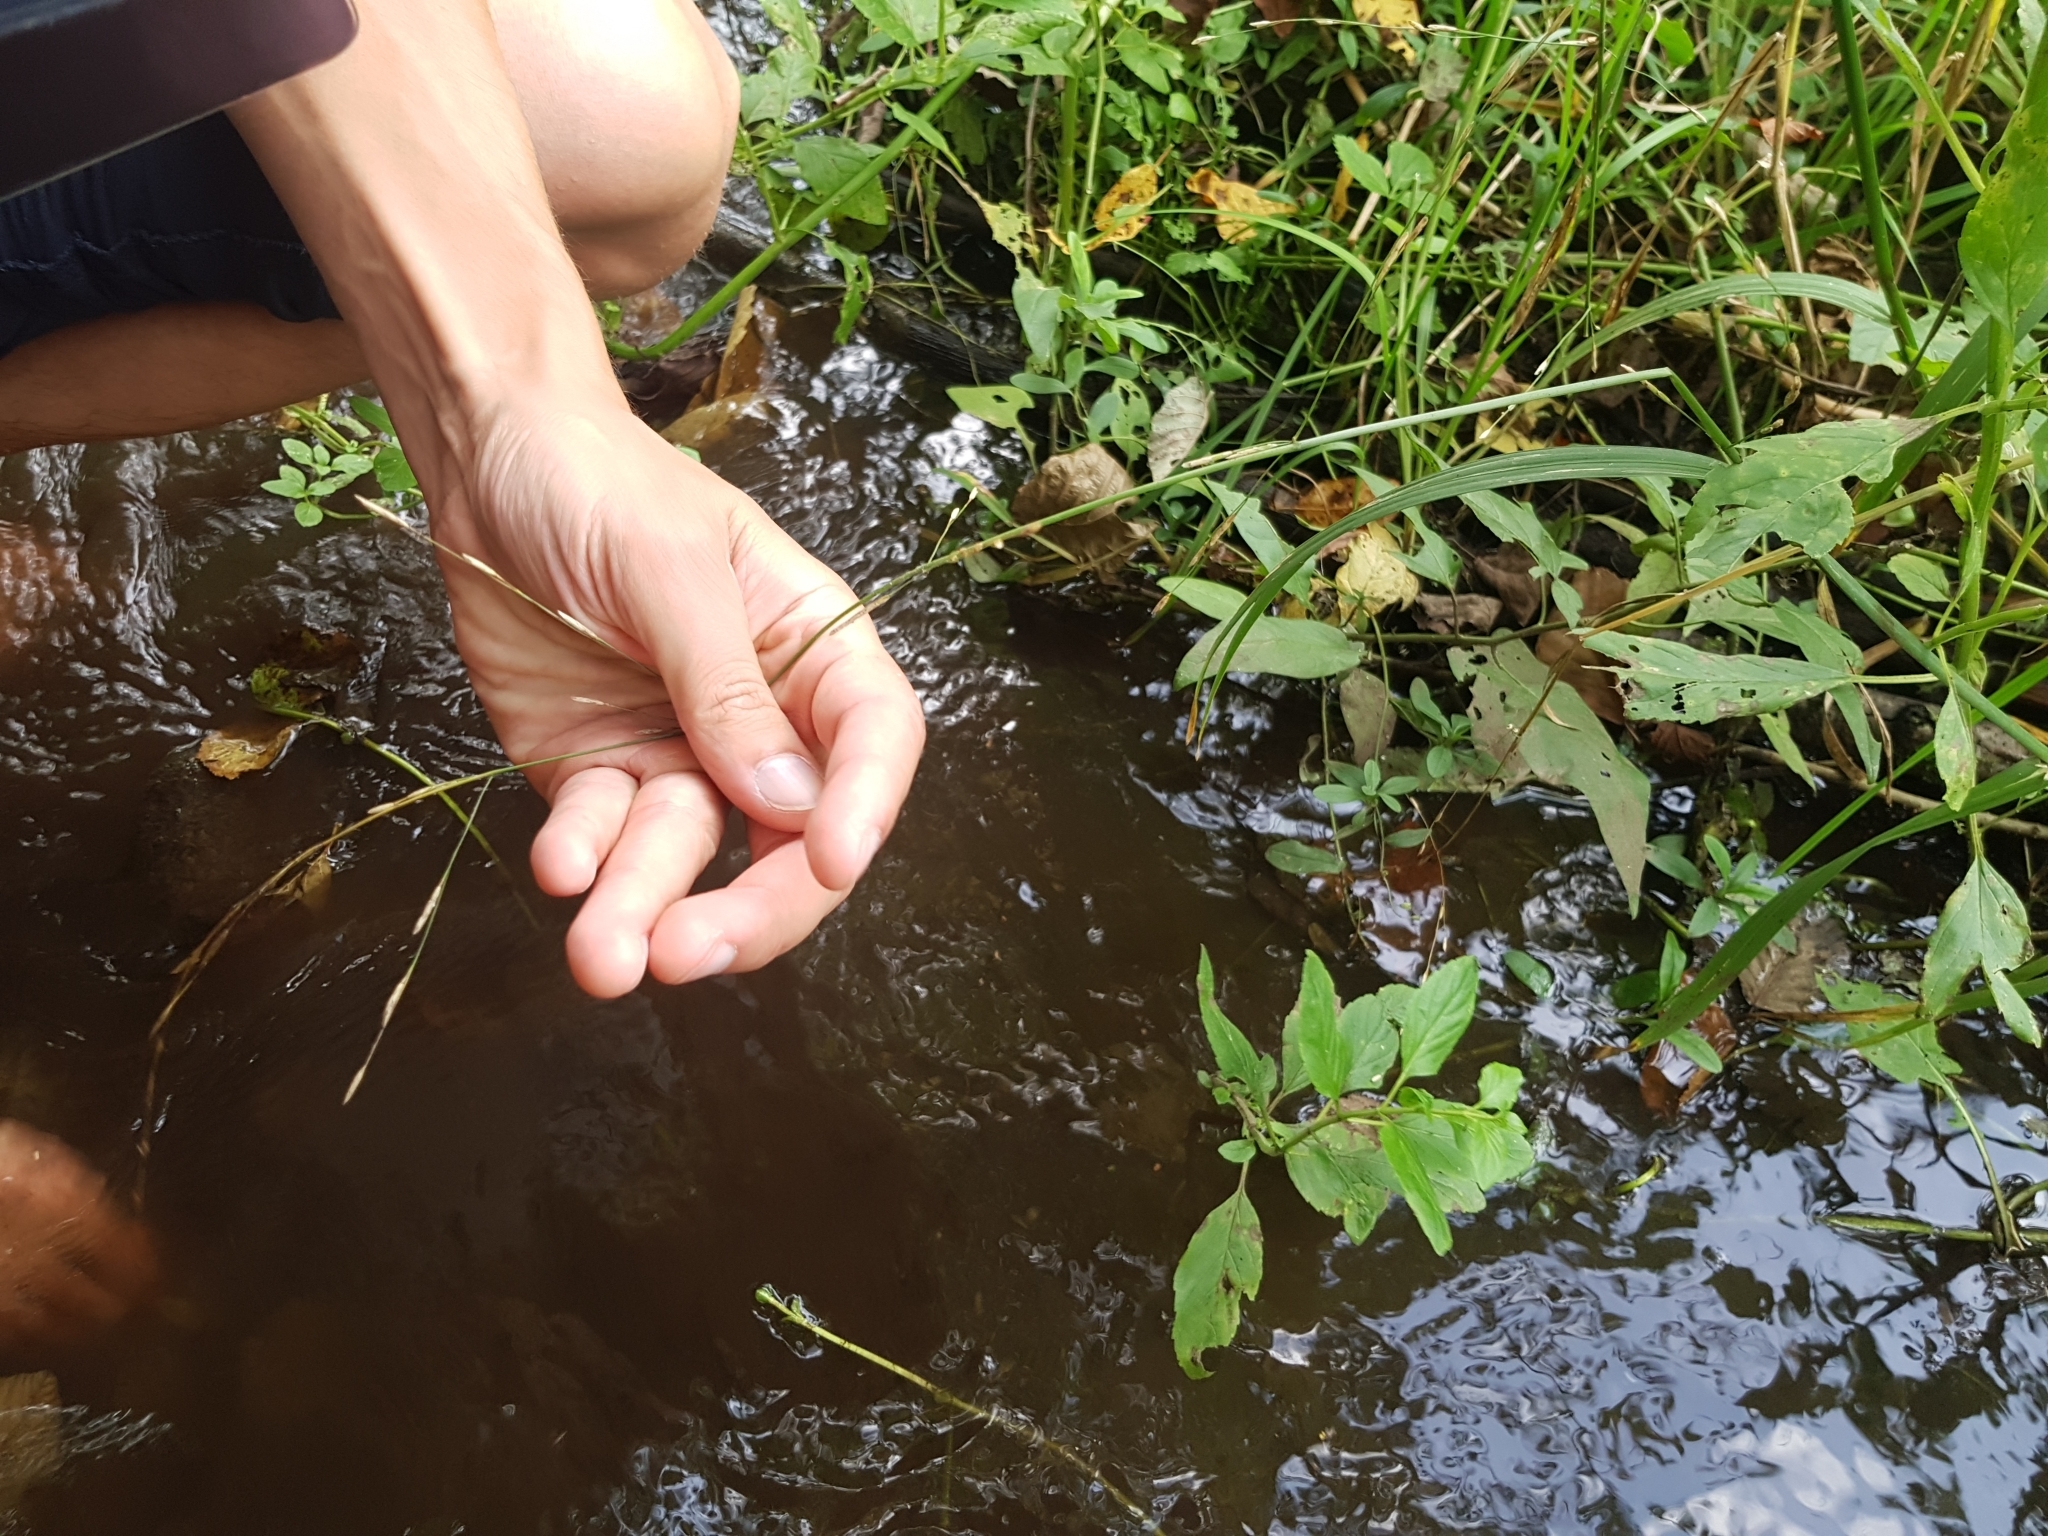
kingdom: Plantae
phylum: Tracheophyta
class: Liliopsida
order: Poales
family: Poaceae
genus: Glyceria
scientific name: Glyceria fluitans
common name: Floating sweet-grass
